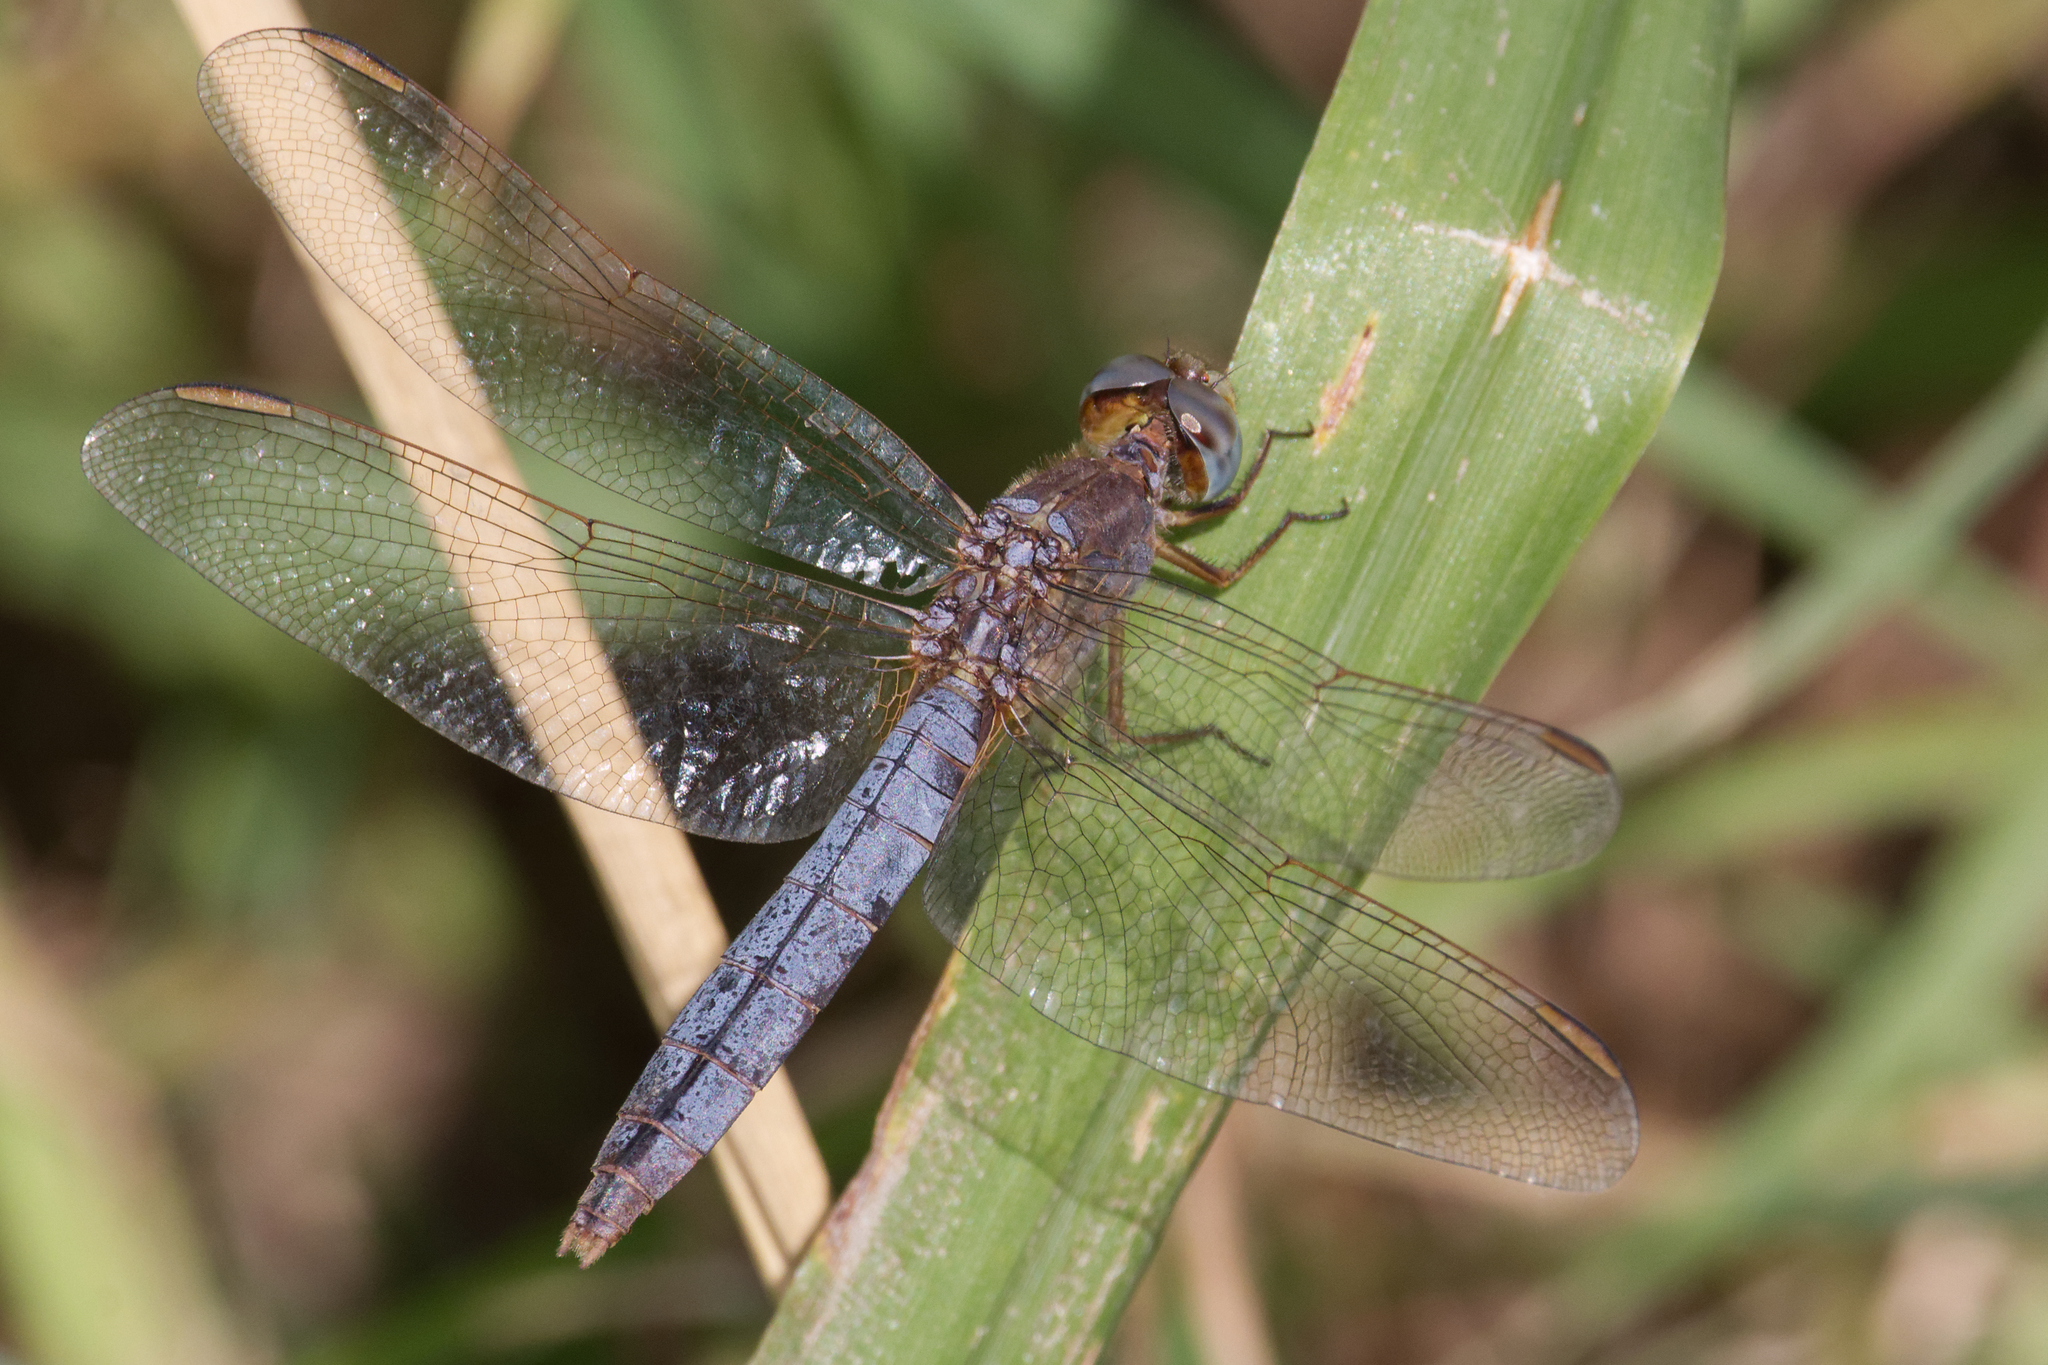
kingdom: Animalia
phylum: Arthropoda
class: Insecta
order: Odonata
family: Libellulidae
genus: Crocothemis
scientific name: Crocothemis nigrifrons
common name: Black-headed skimmer
